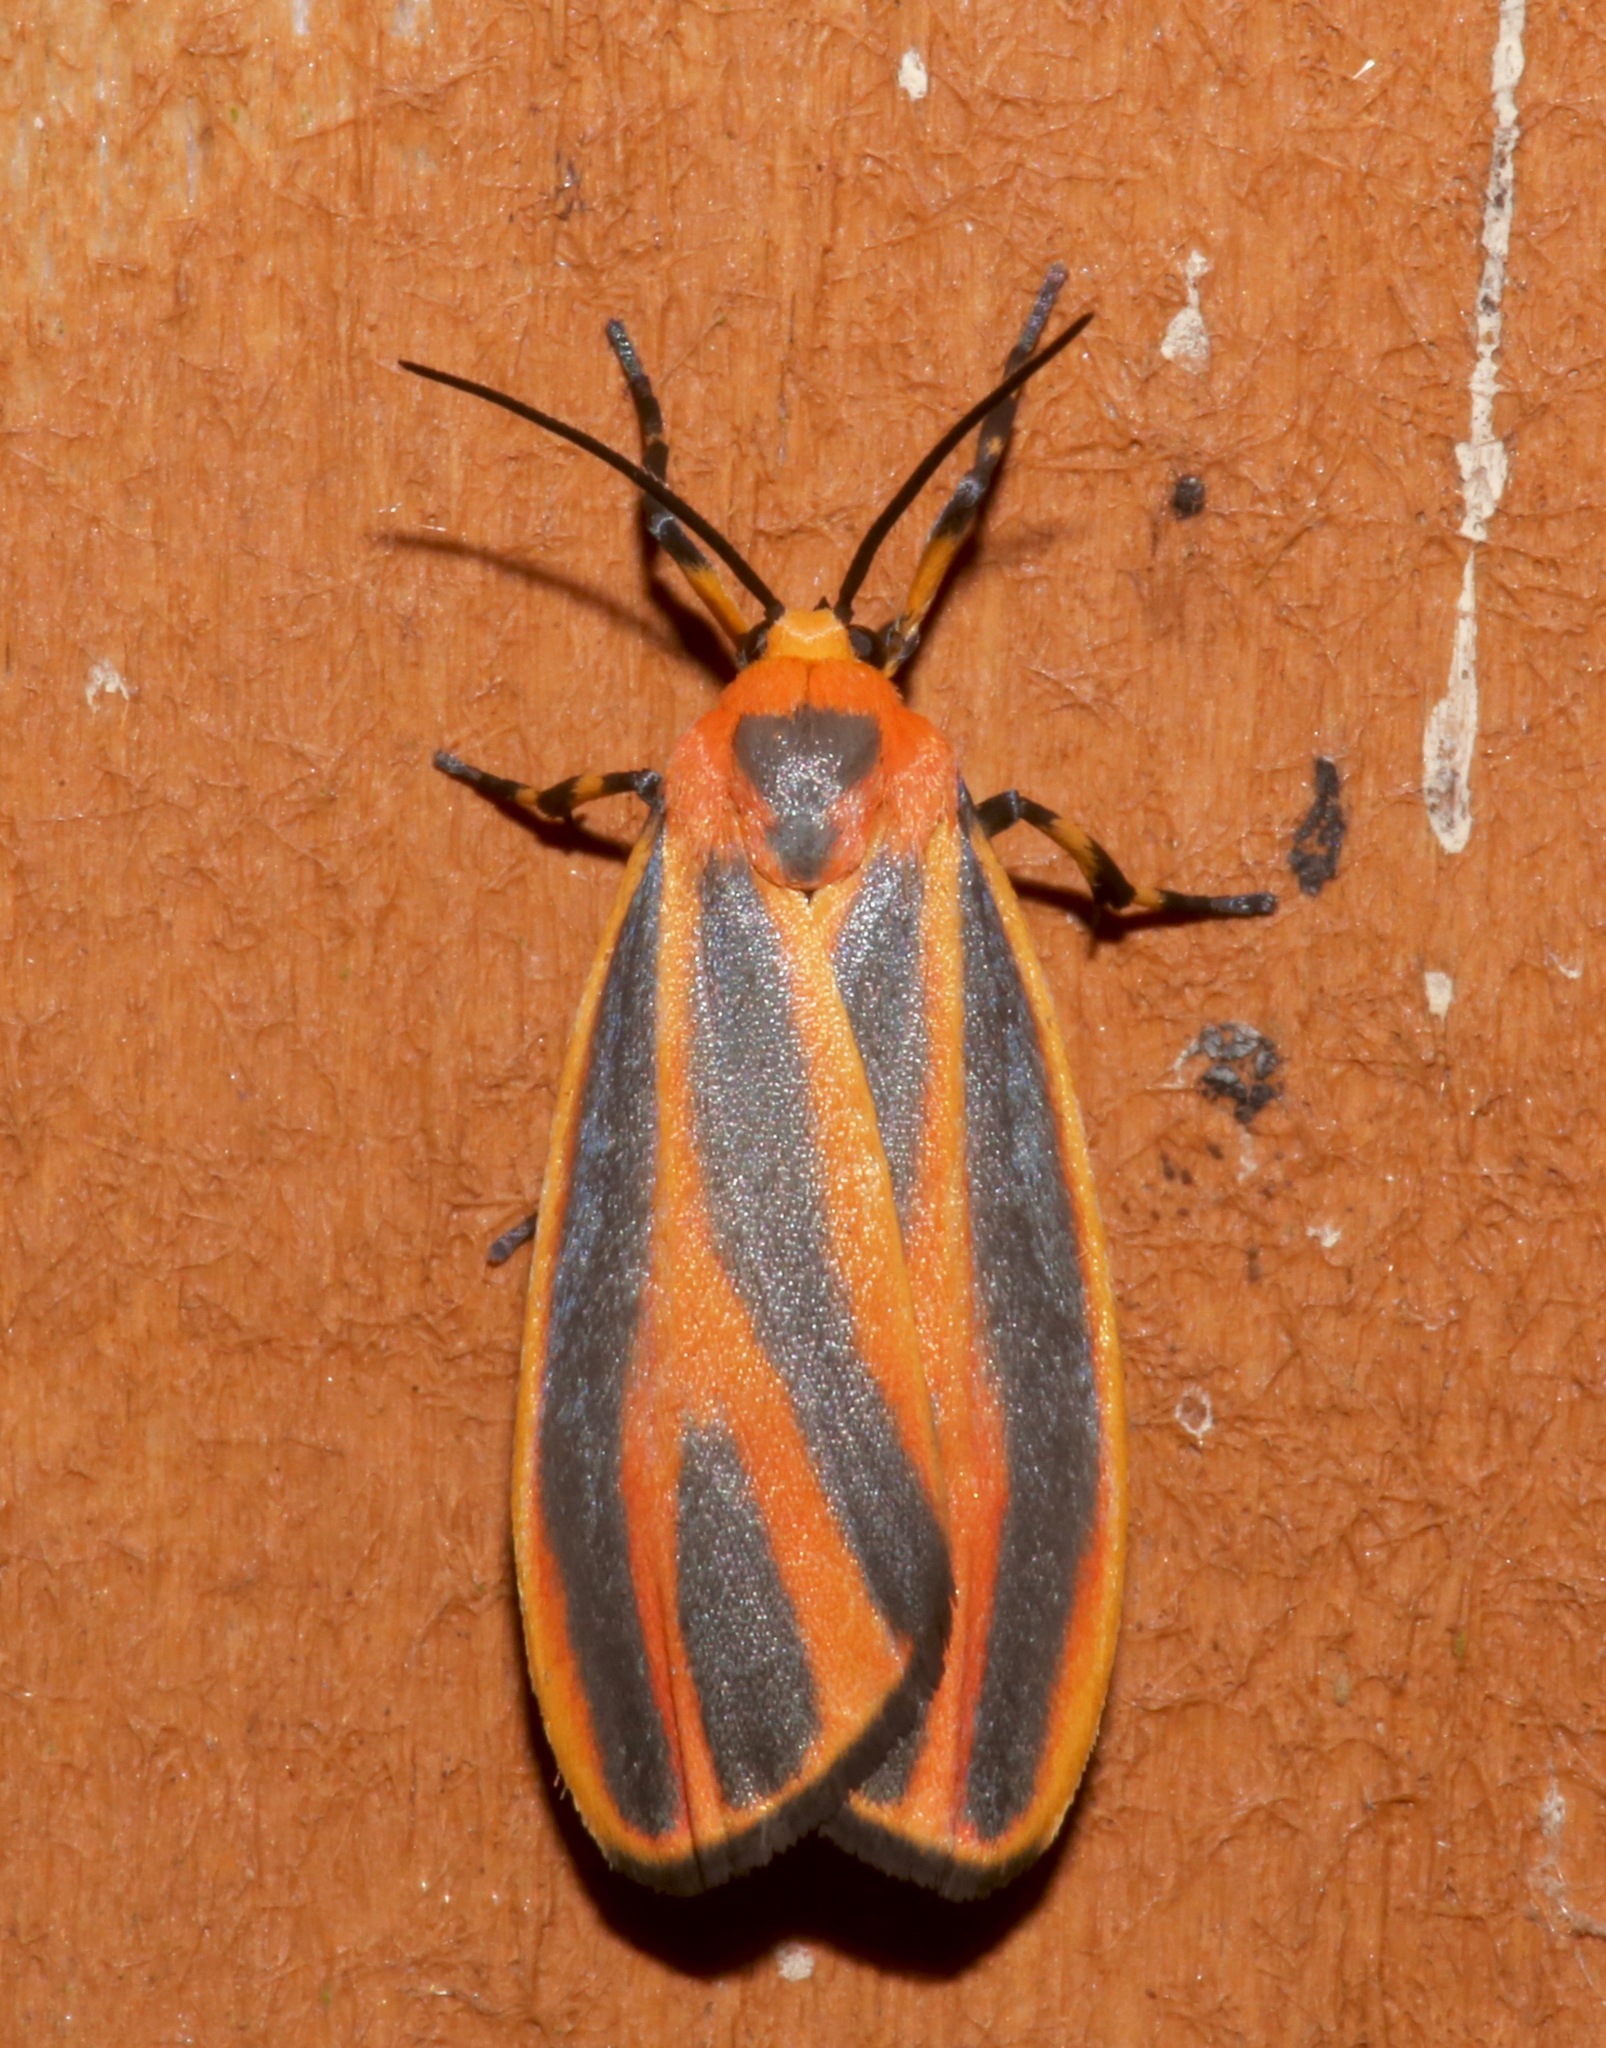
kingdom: Animalia
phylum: Arthropoda
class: Insecta
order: Lepidoptera
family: Erebidae
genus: Hypoprepia
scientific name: Hypoprepia fucosa
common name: Painted lichen moth
